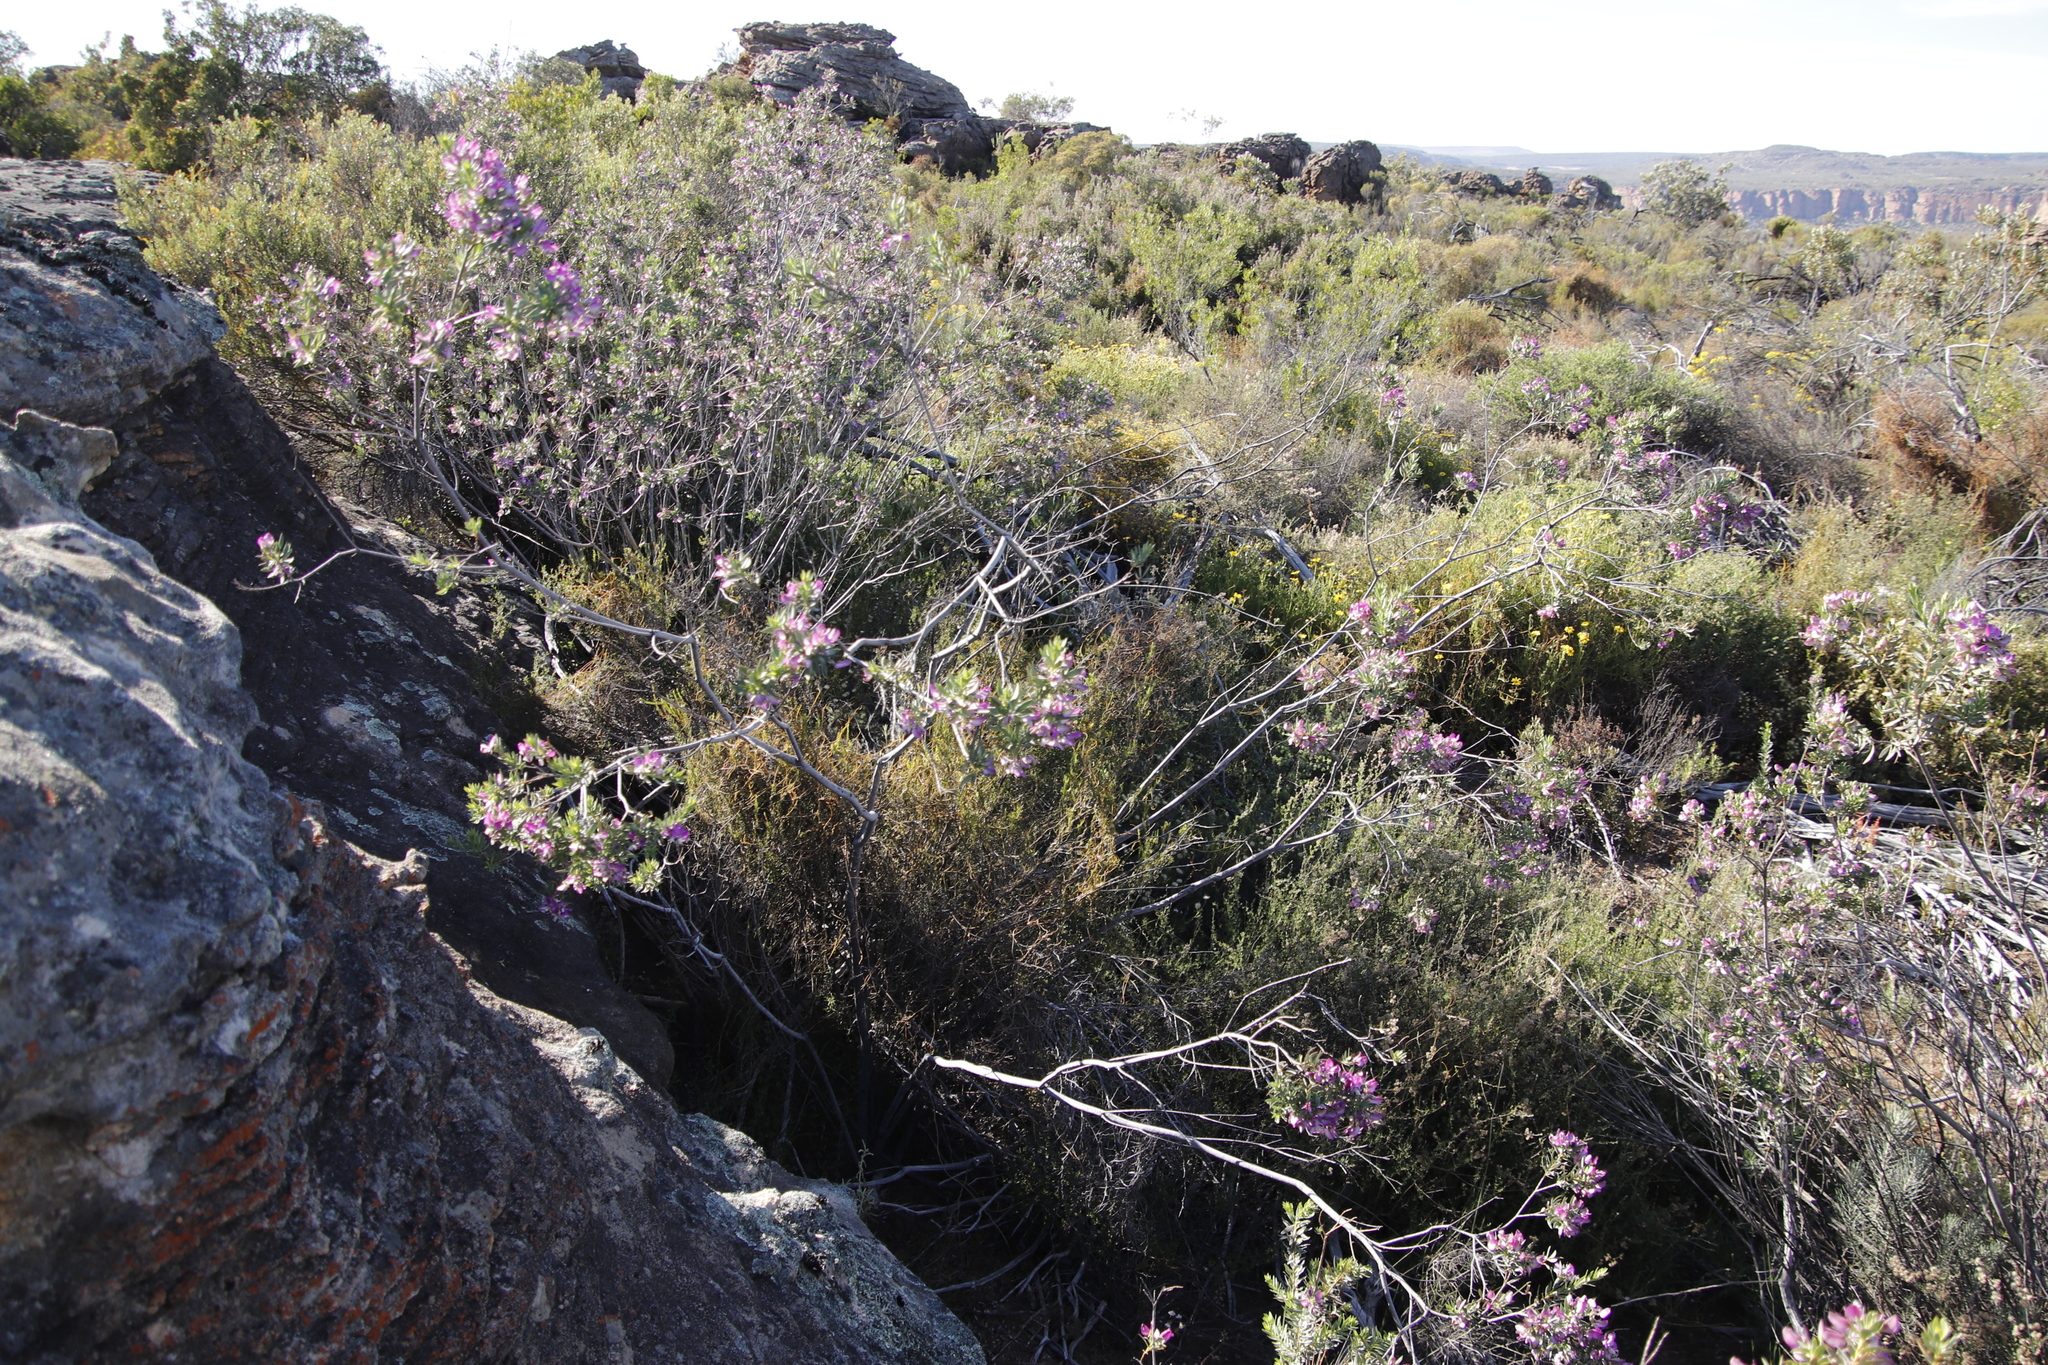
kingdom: Plantae
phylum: Tracheophyta
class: Magnoliopsida
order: Fabales
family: Polygalaceae
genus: Polygala
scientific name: Polygala myrtifolia
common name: Myrtle-leaf milkwort
